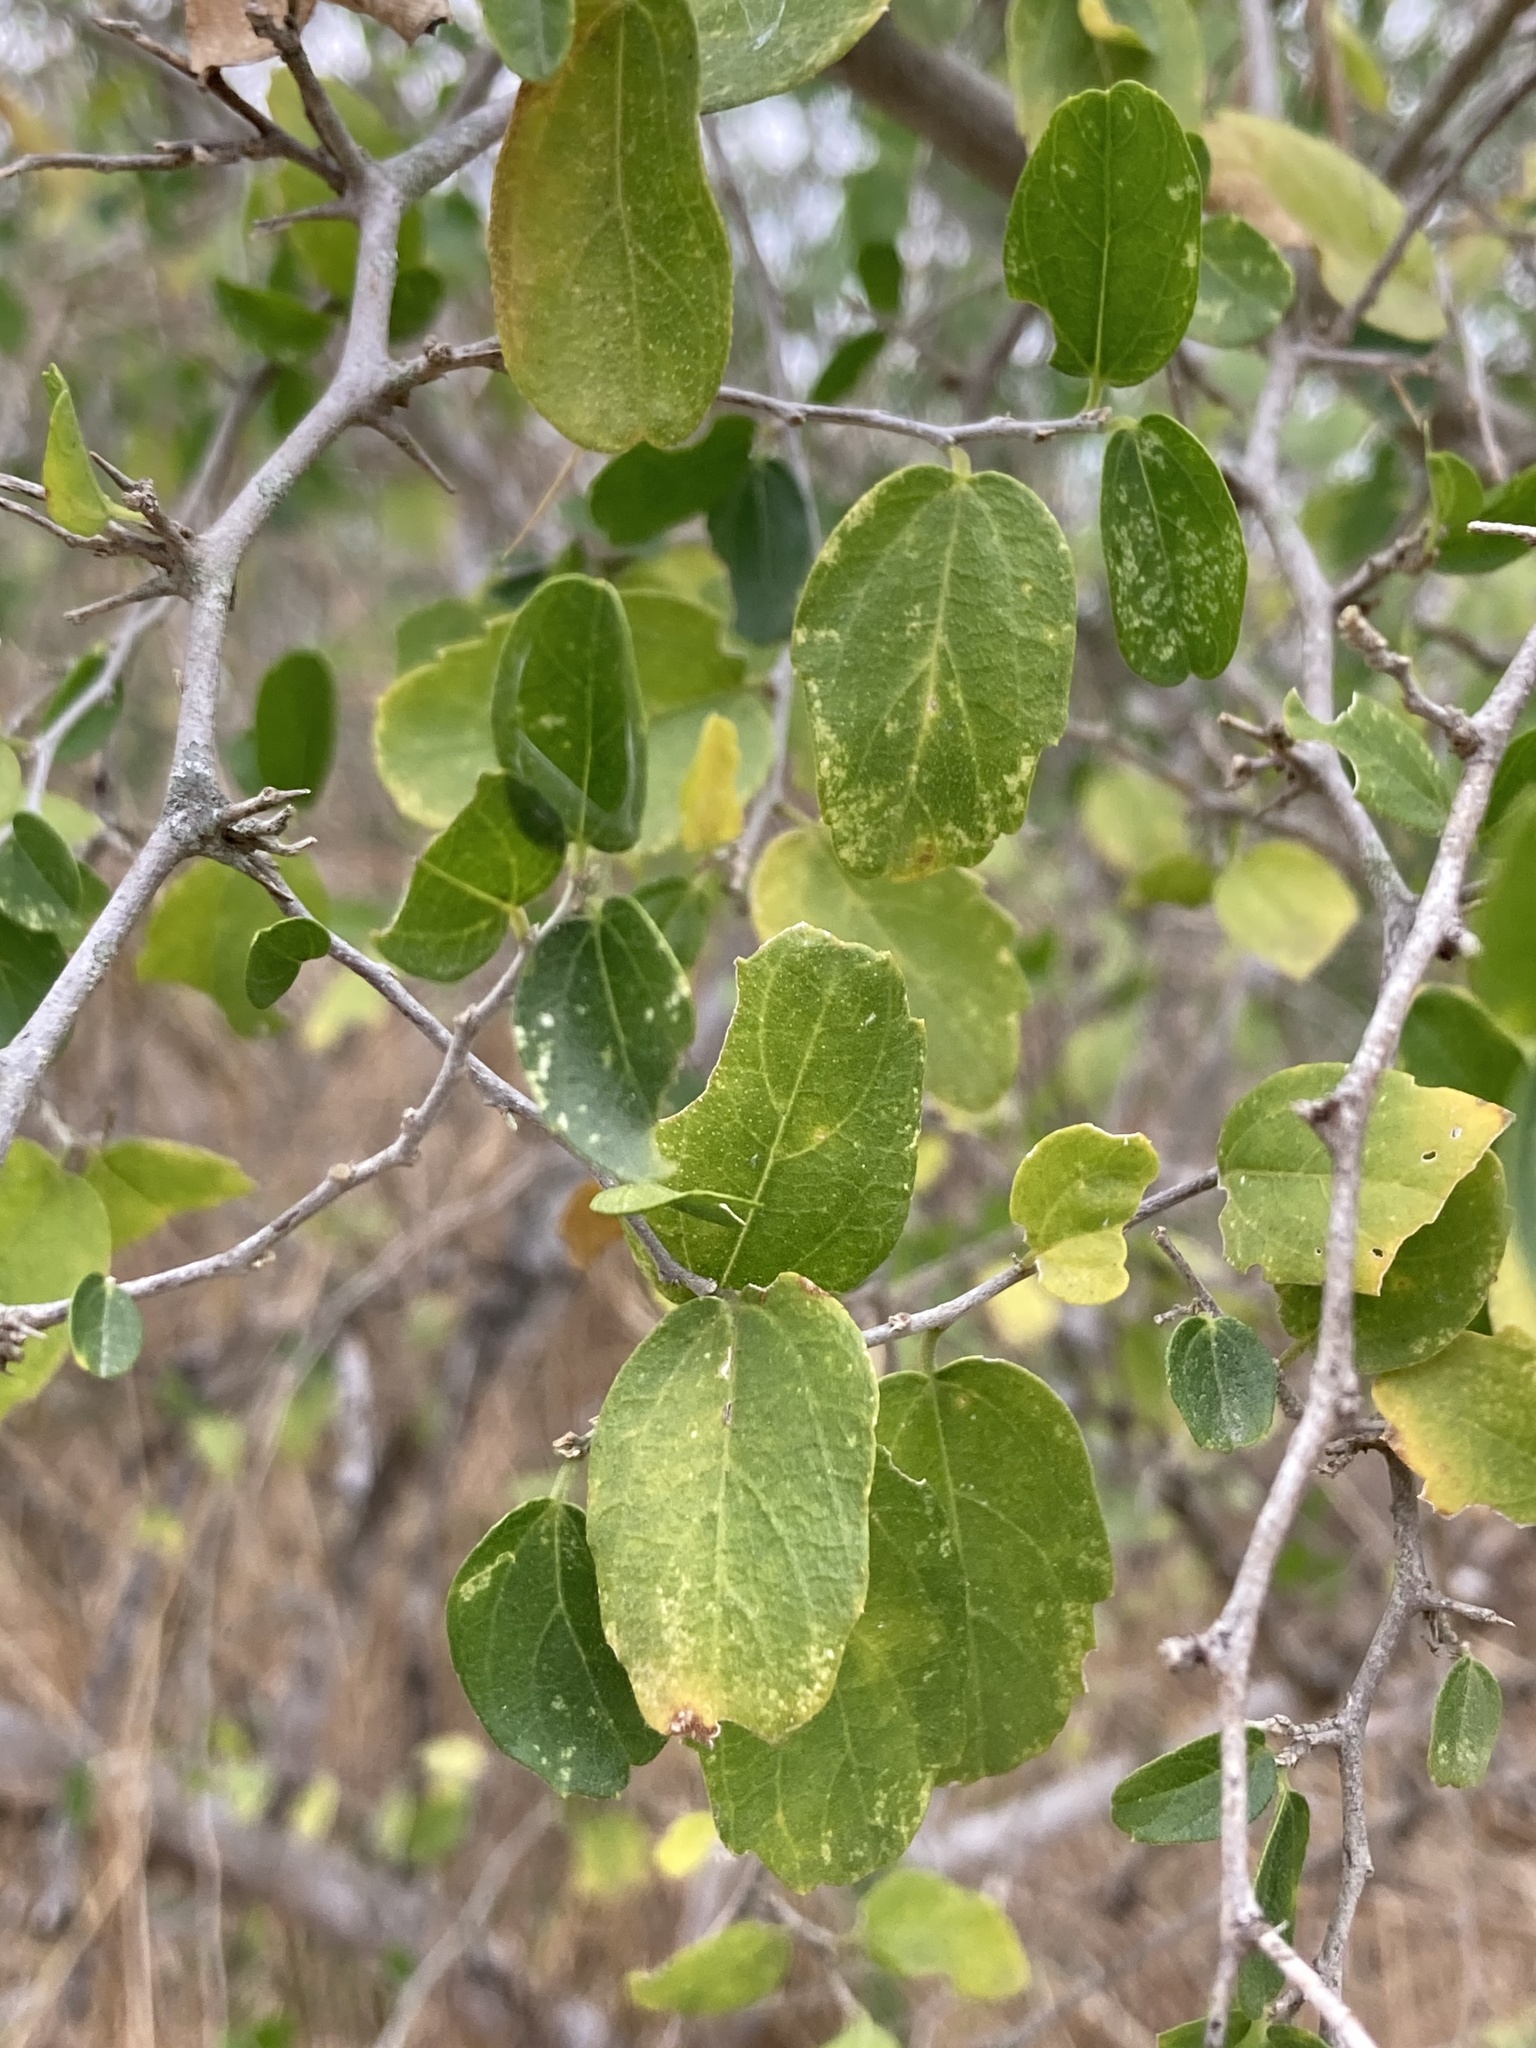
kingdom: Plantae
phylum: Tracheophyta
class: Magnoliopsida
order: Rosales
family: Cannabaceae
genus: Celtis
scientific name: Celtis pallida
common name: Desert hackberry
